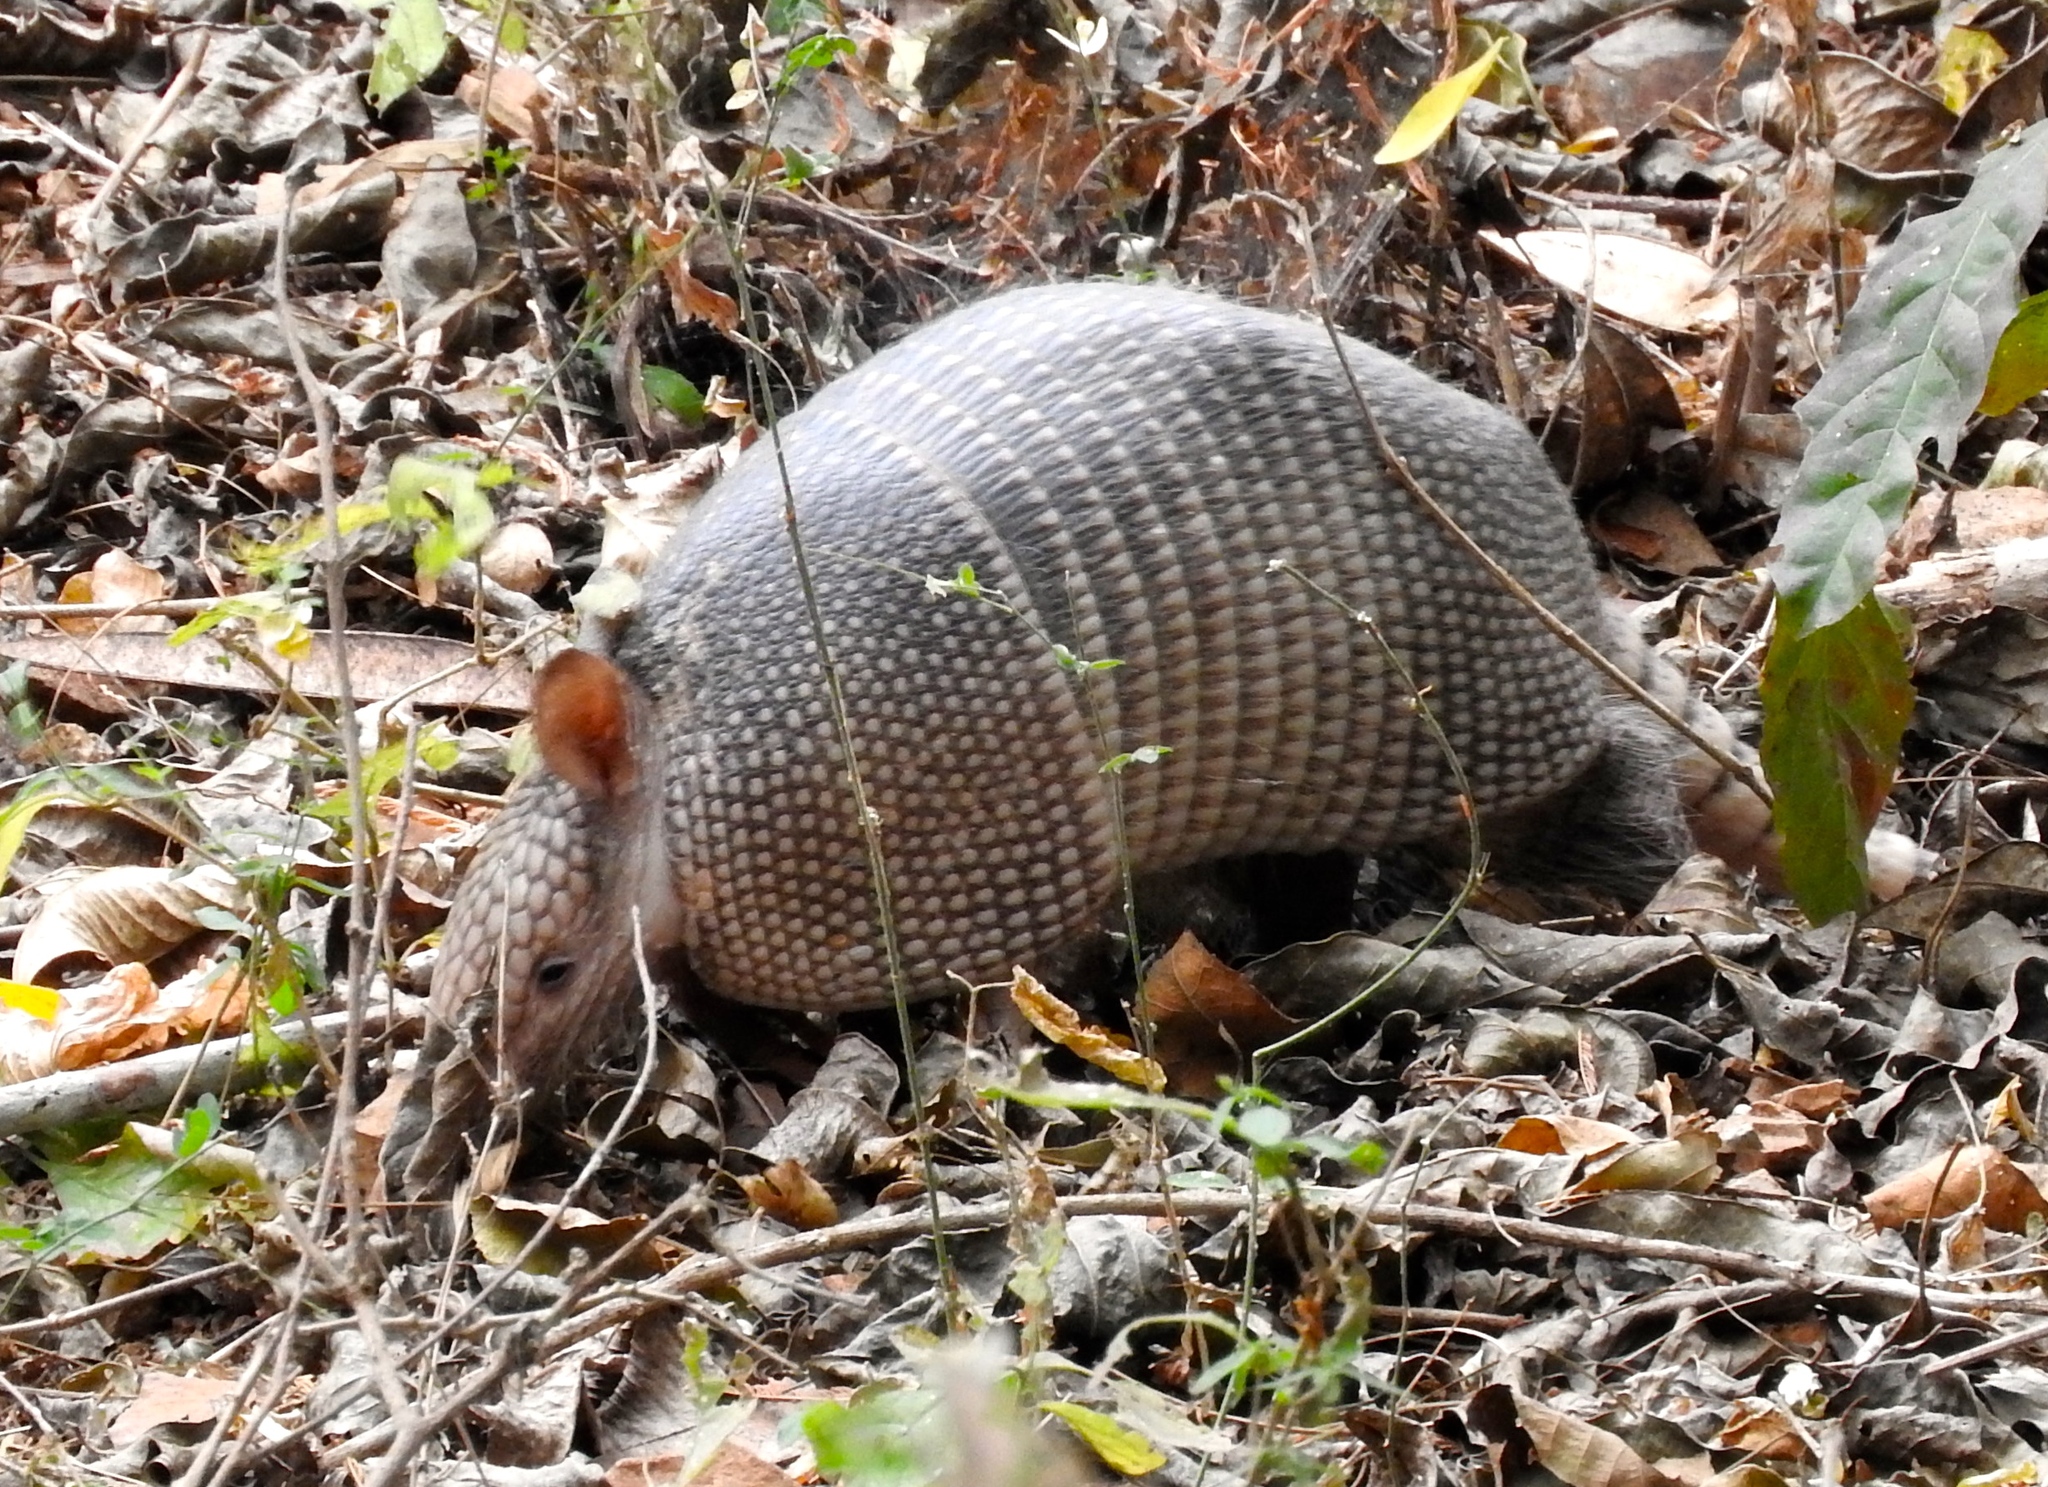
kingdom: Animalia
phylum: Chordata
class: Mammalia
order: Cingulata
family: Dasypodidae
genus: Dasypus
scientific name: Dasypus novemcinctus
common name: Nine-banded armadillo
